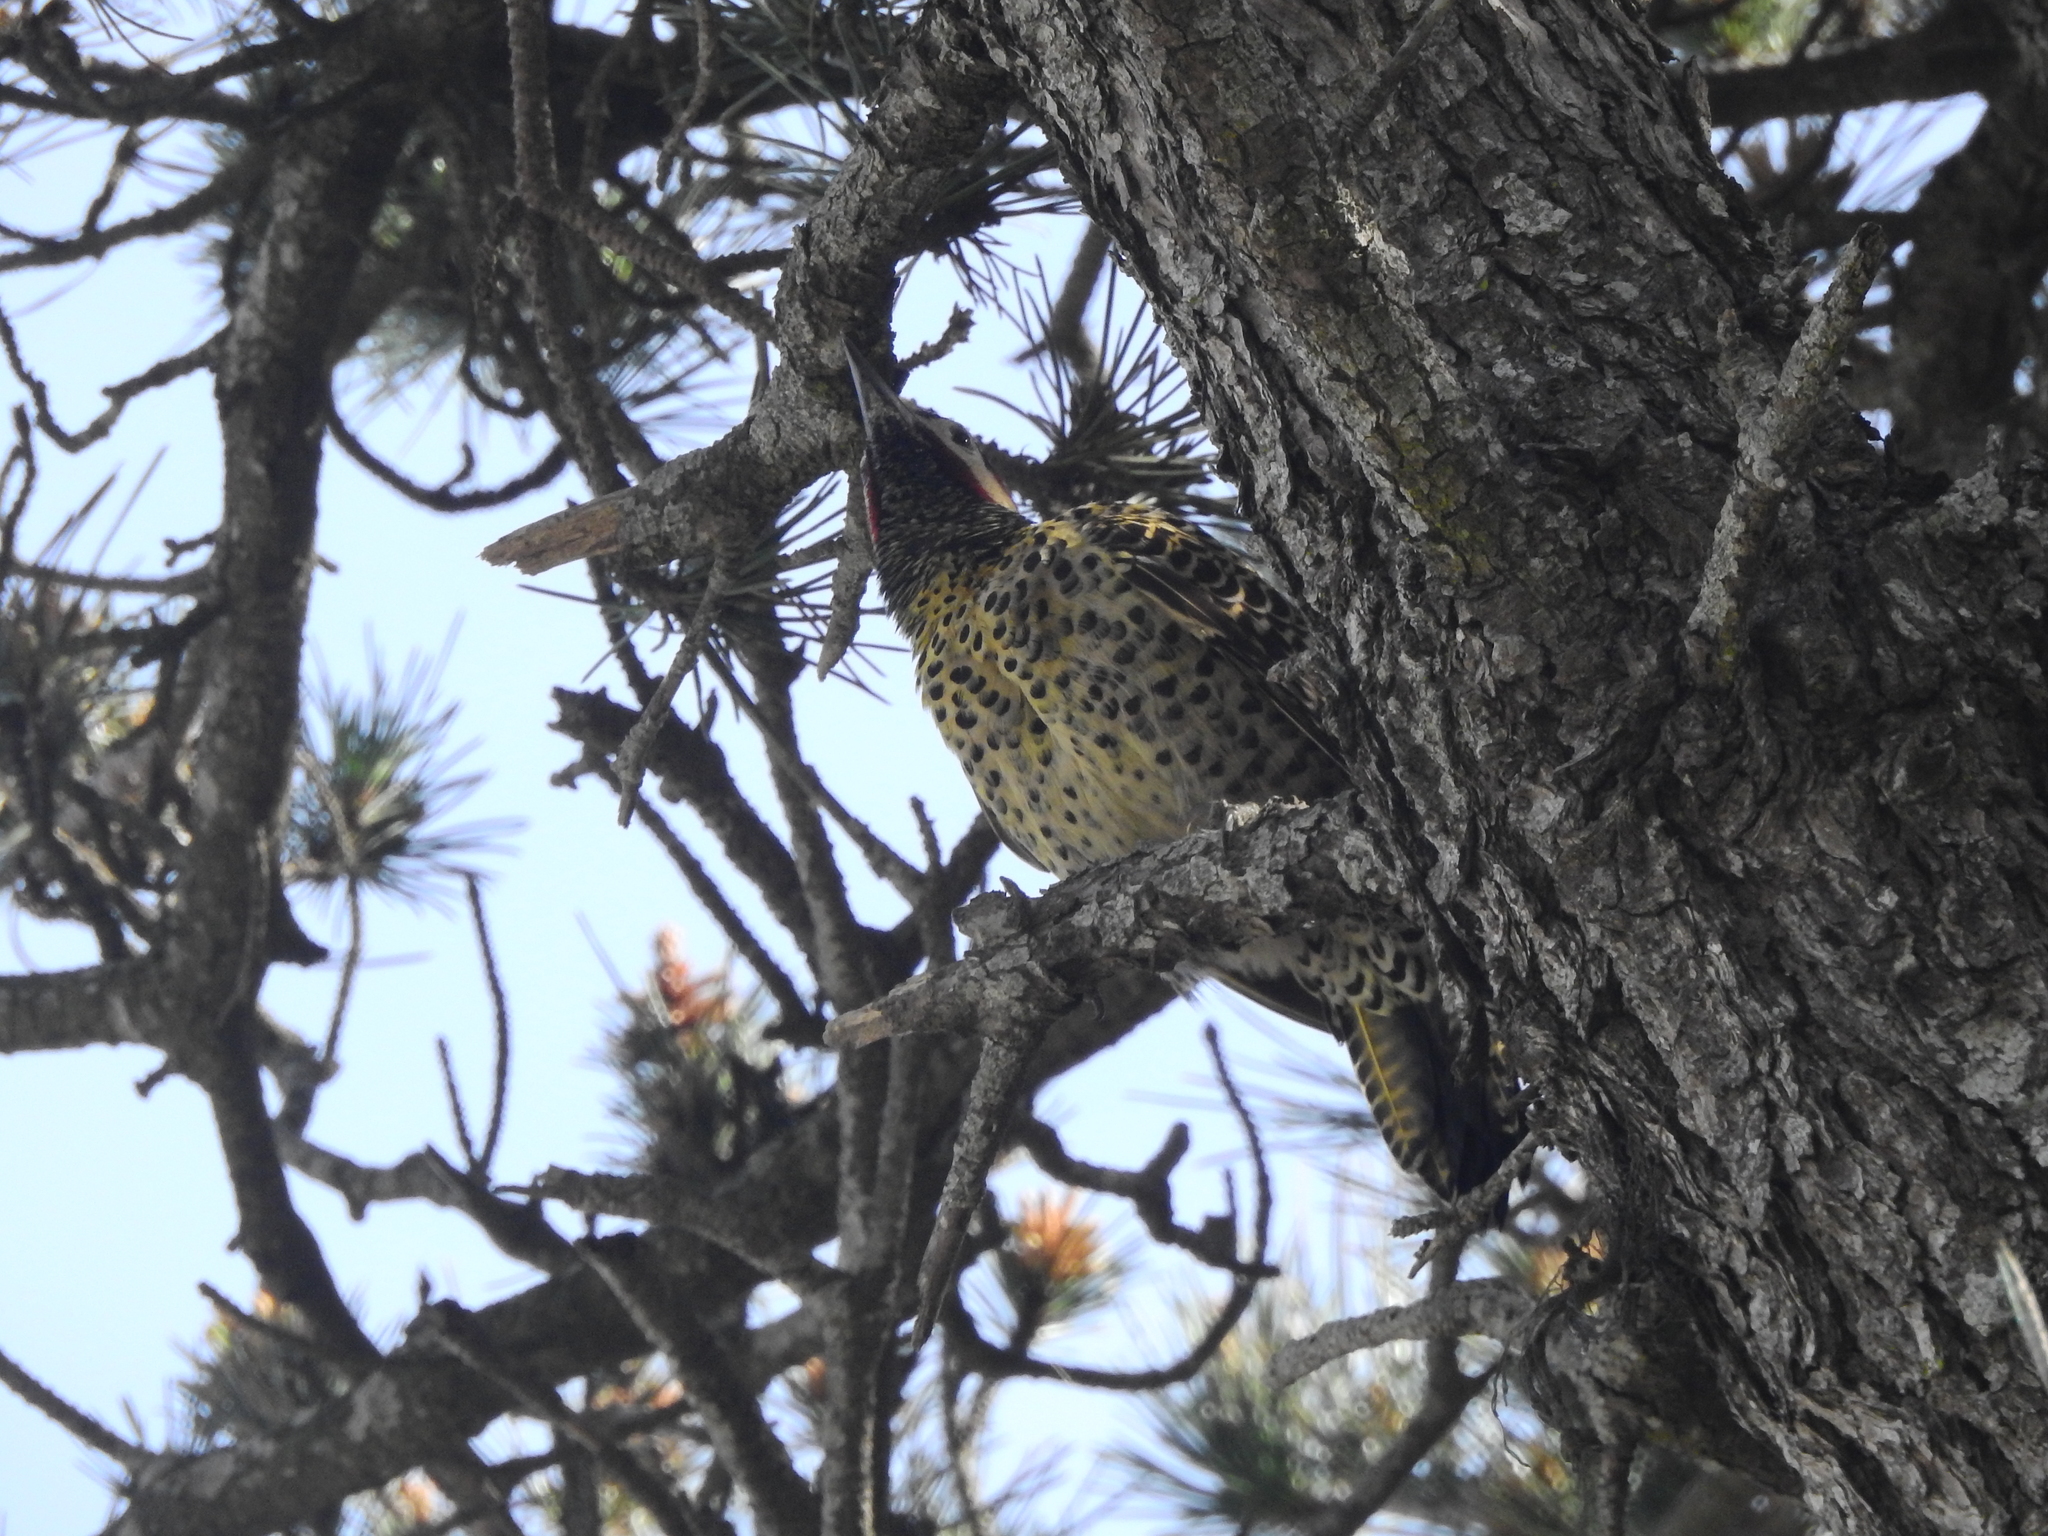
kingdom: Animalia
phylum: Chordata
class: Aves
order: Piciformes
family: Picidae
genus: Colaptes
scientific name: Colaptes melanochloros
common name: Green-barred woodpecker
